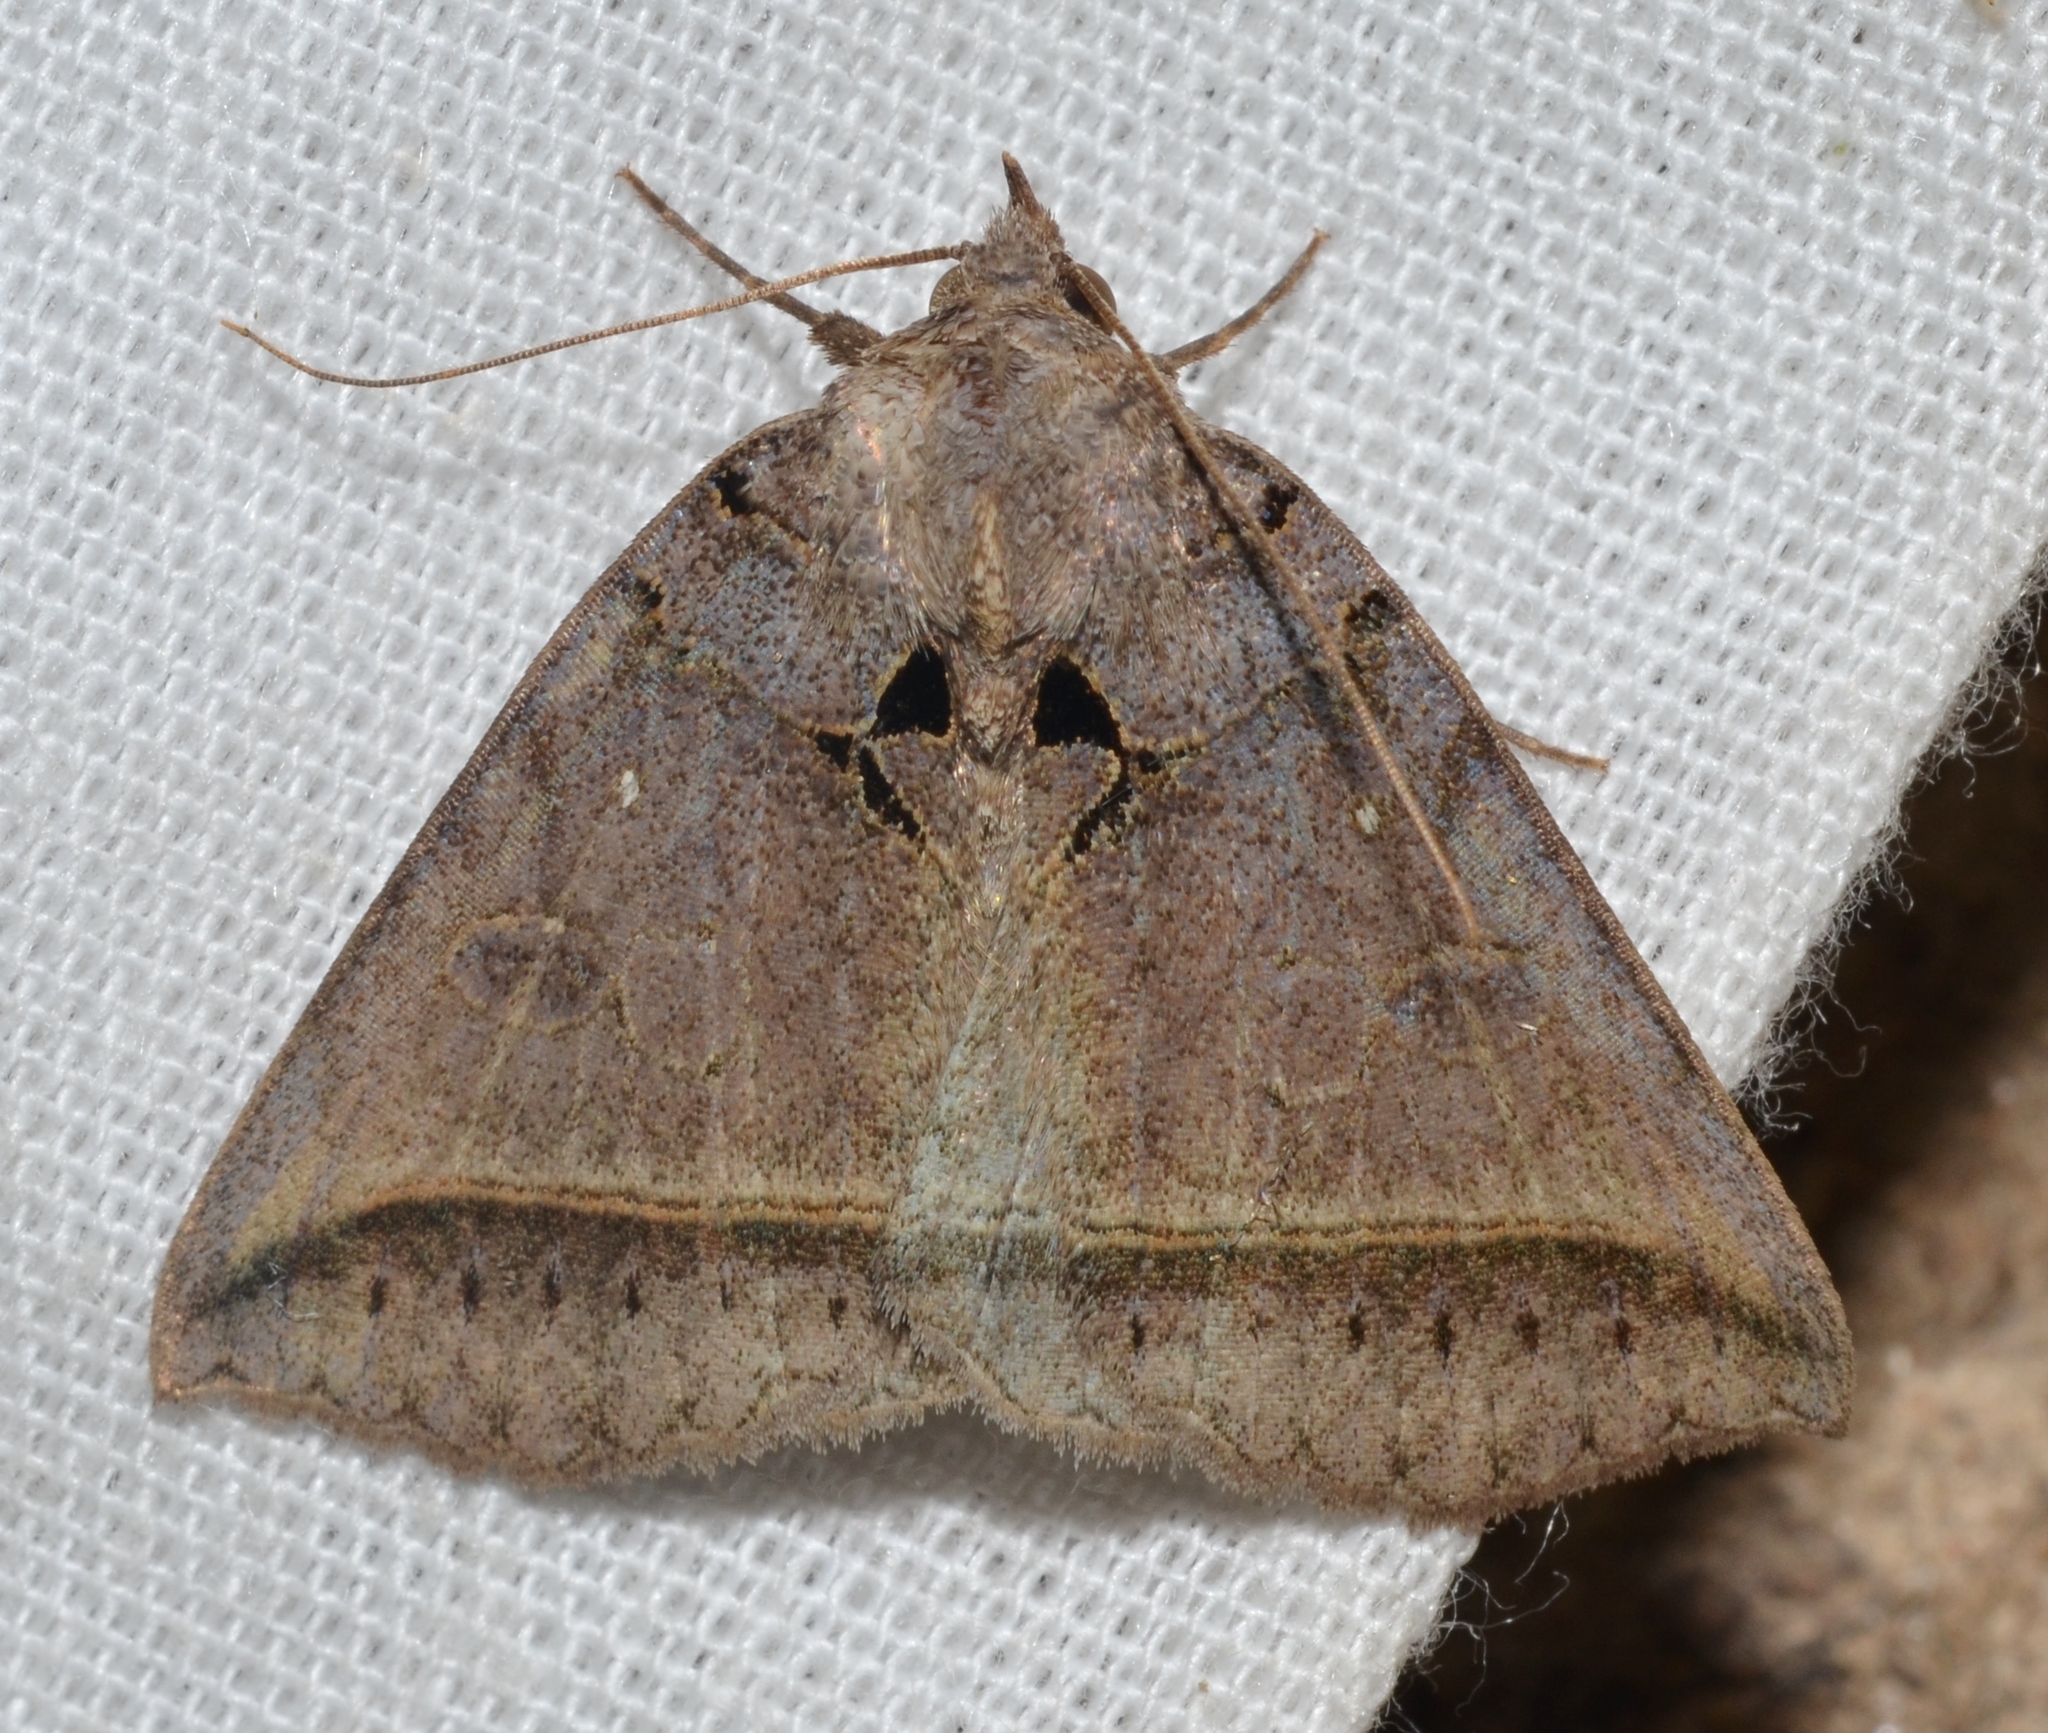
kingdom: Animalia
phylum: Arthropoda
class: Insecta
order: Lepidoptera
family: Erebidae
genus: Celiptera
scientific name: Celiptera frustulum
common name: Black bit moth
